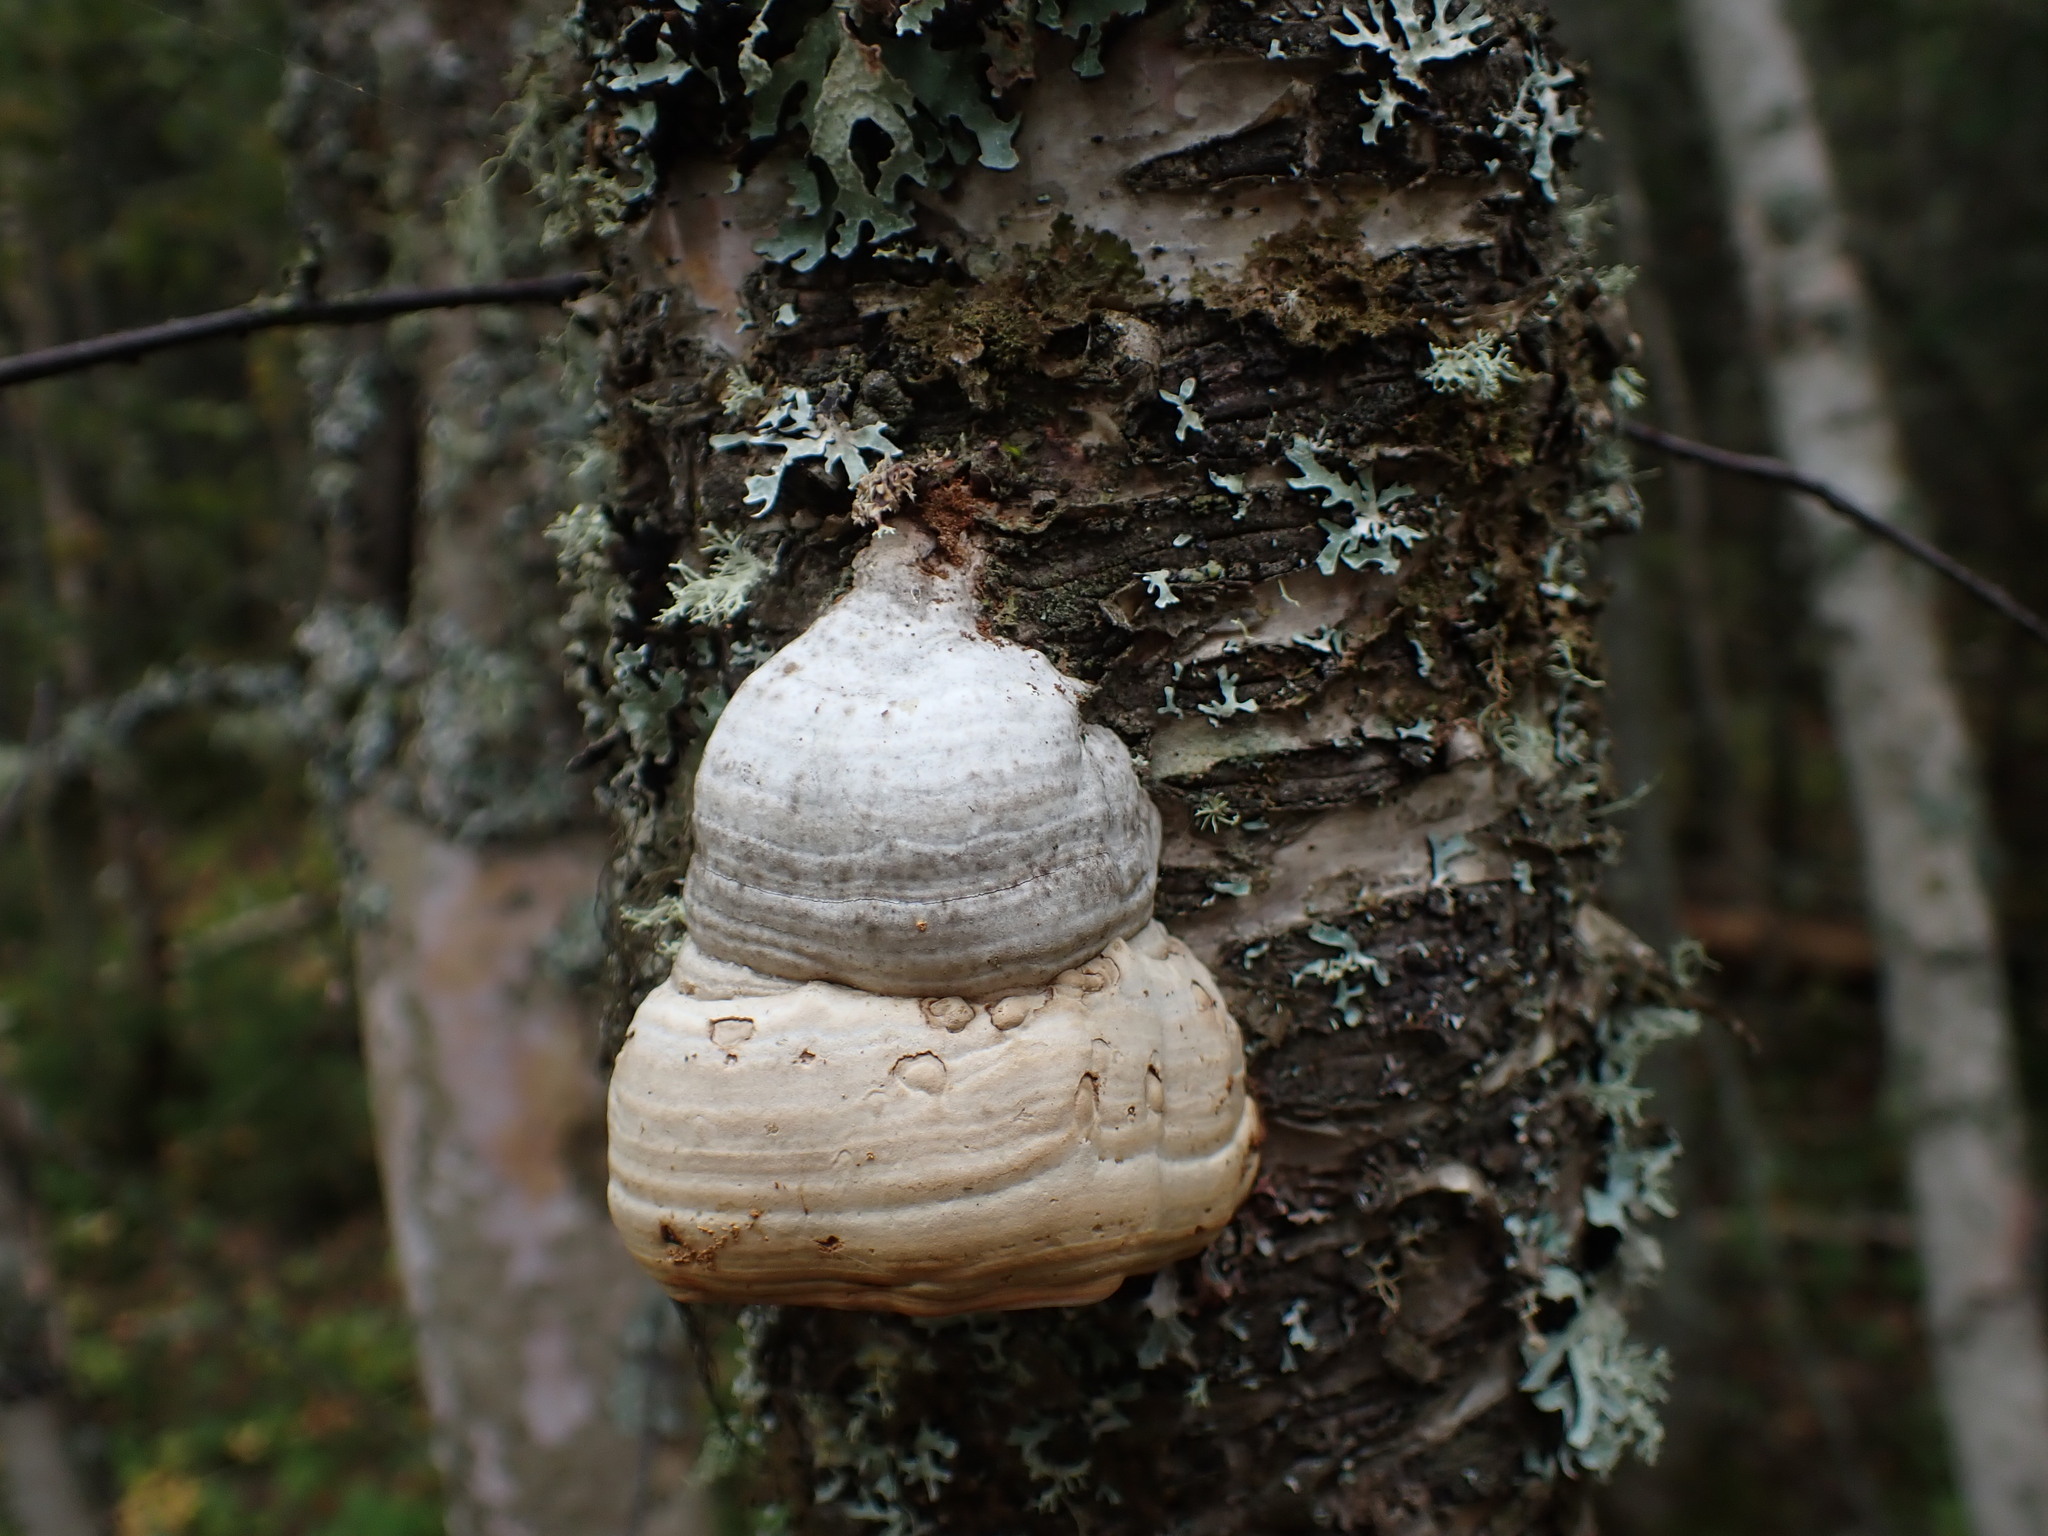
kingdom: Fungi
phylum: Basidiomycota
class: Agaricomycetes
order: Polyporales
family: Polyporaceae
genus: Fomes
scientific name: Fomes fomentarius
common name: Hoof fungus
